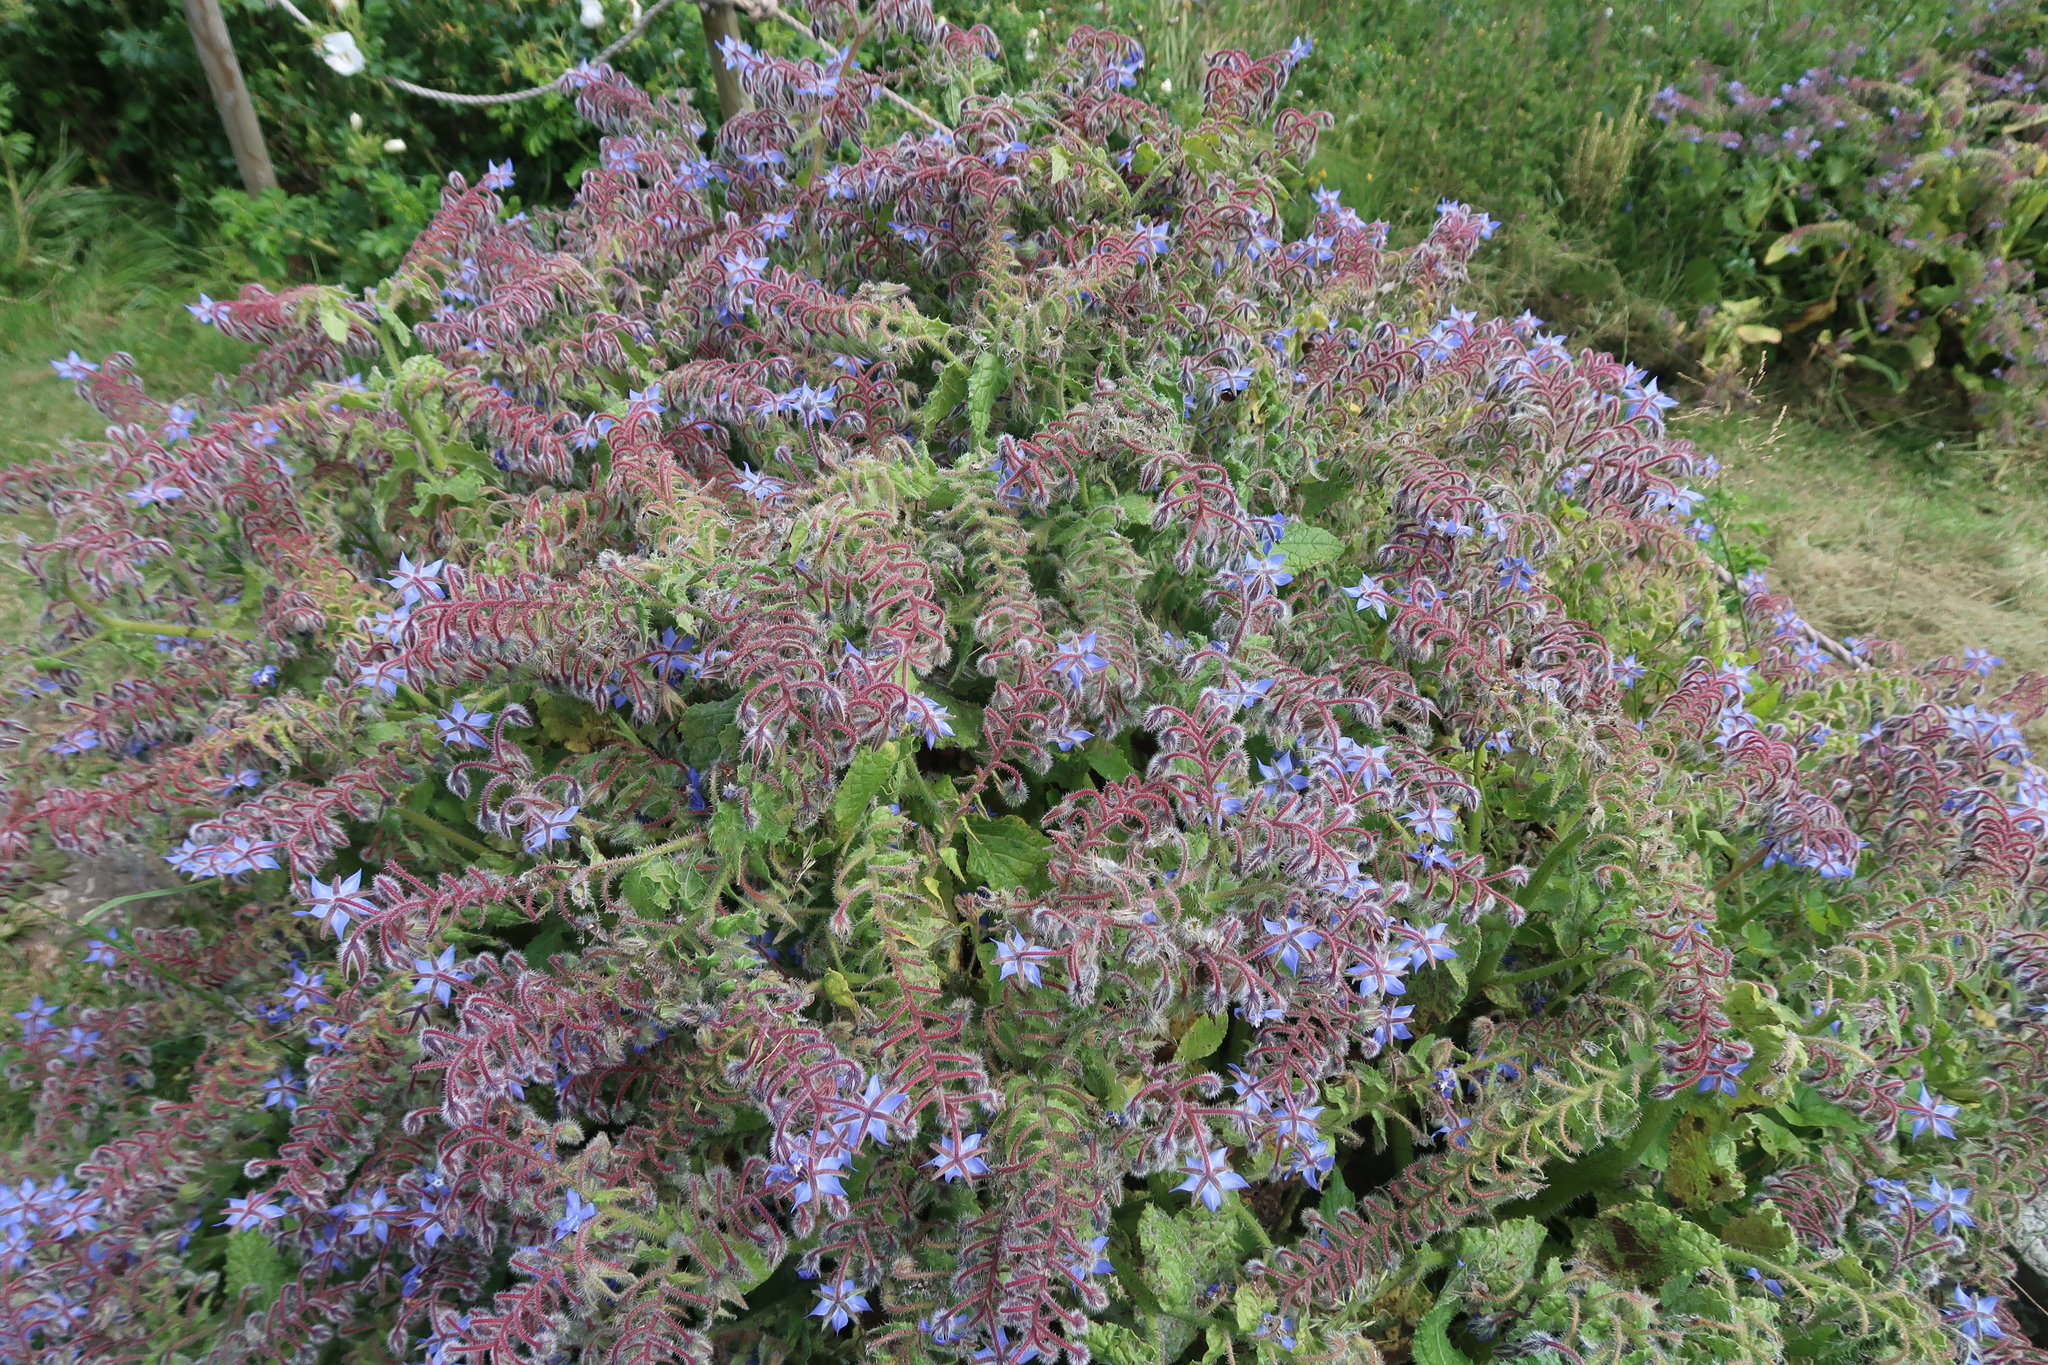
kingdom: Plantae
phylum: Tracheophyta
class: Magnoliopsida
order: Boraginales
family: Boraginaceae
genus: Borago
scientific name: Borago officinalis
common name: Borage
